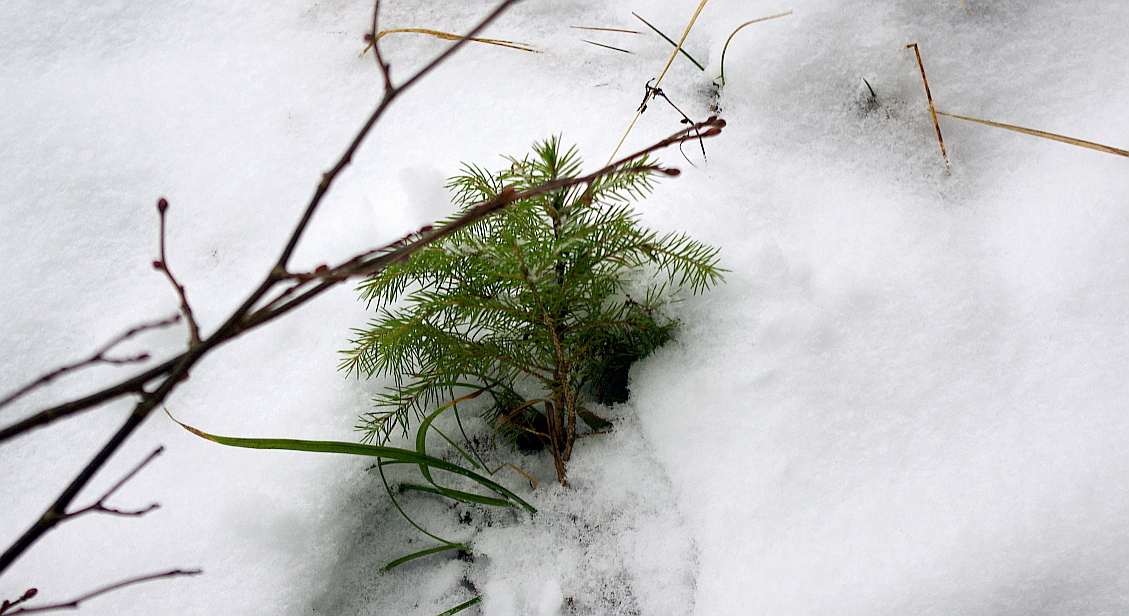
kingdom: Plantae
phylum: Tracheophyta
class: Pinopsida
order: Pinales
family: Pinaceae
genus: Picea
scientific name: Picea abies
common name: Norway spruce
